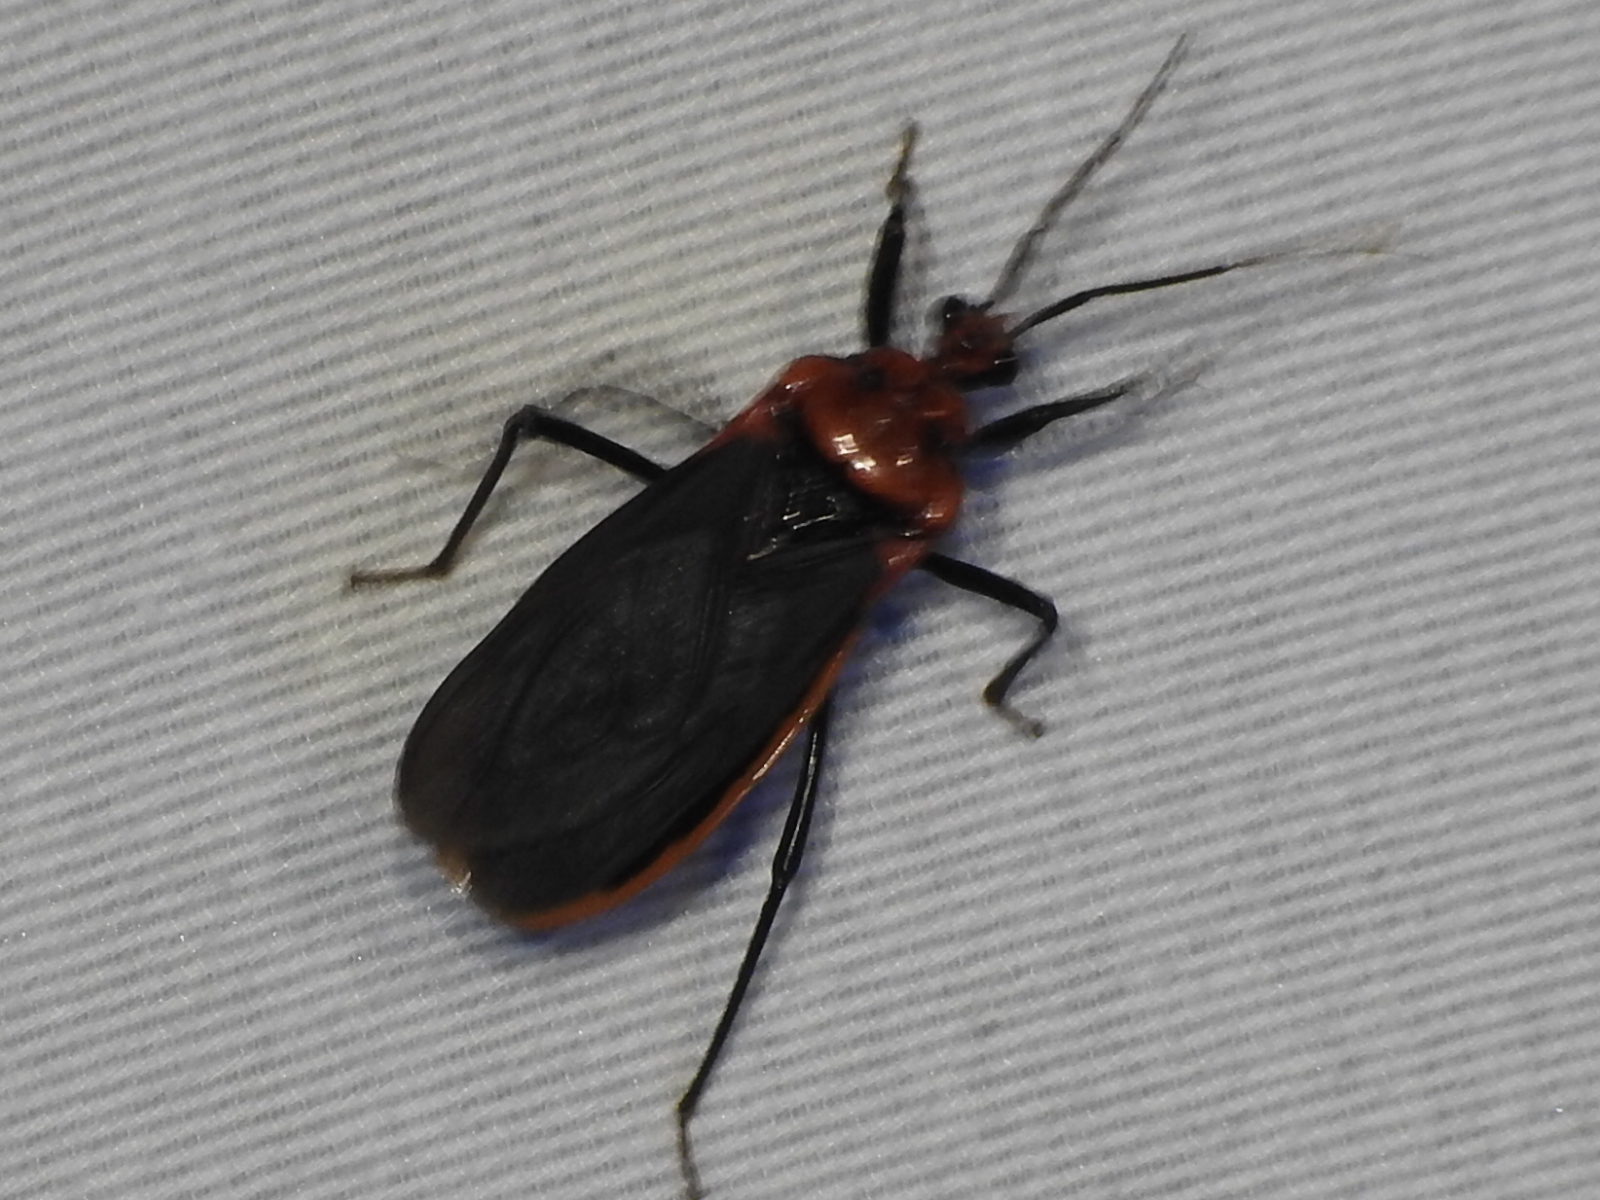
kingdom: Animalia
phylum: Arthropoda
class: Insecta
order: Hemiptera
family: Reduviidae
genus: Rhiginia
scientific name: Rhiginia cinctiventris
